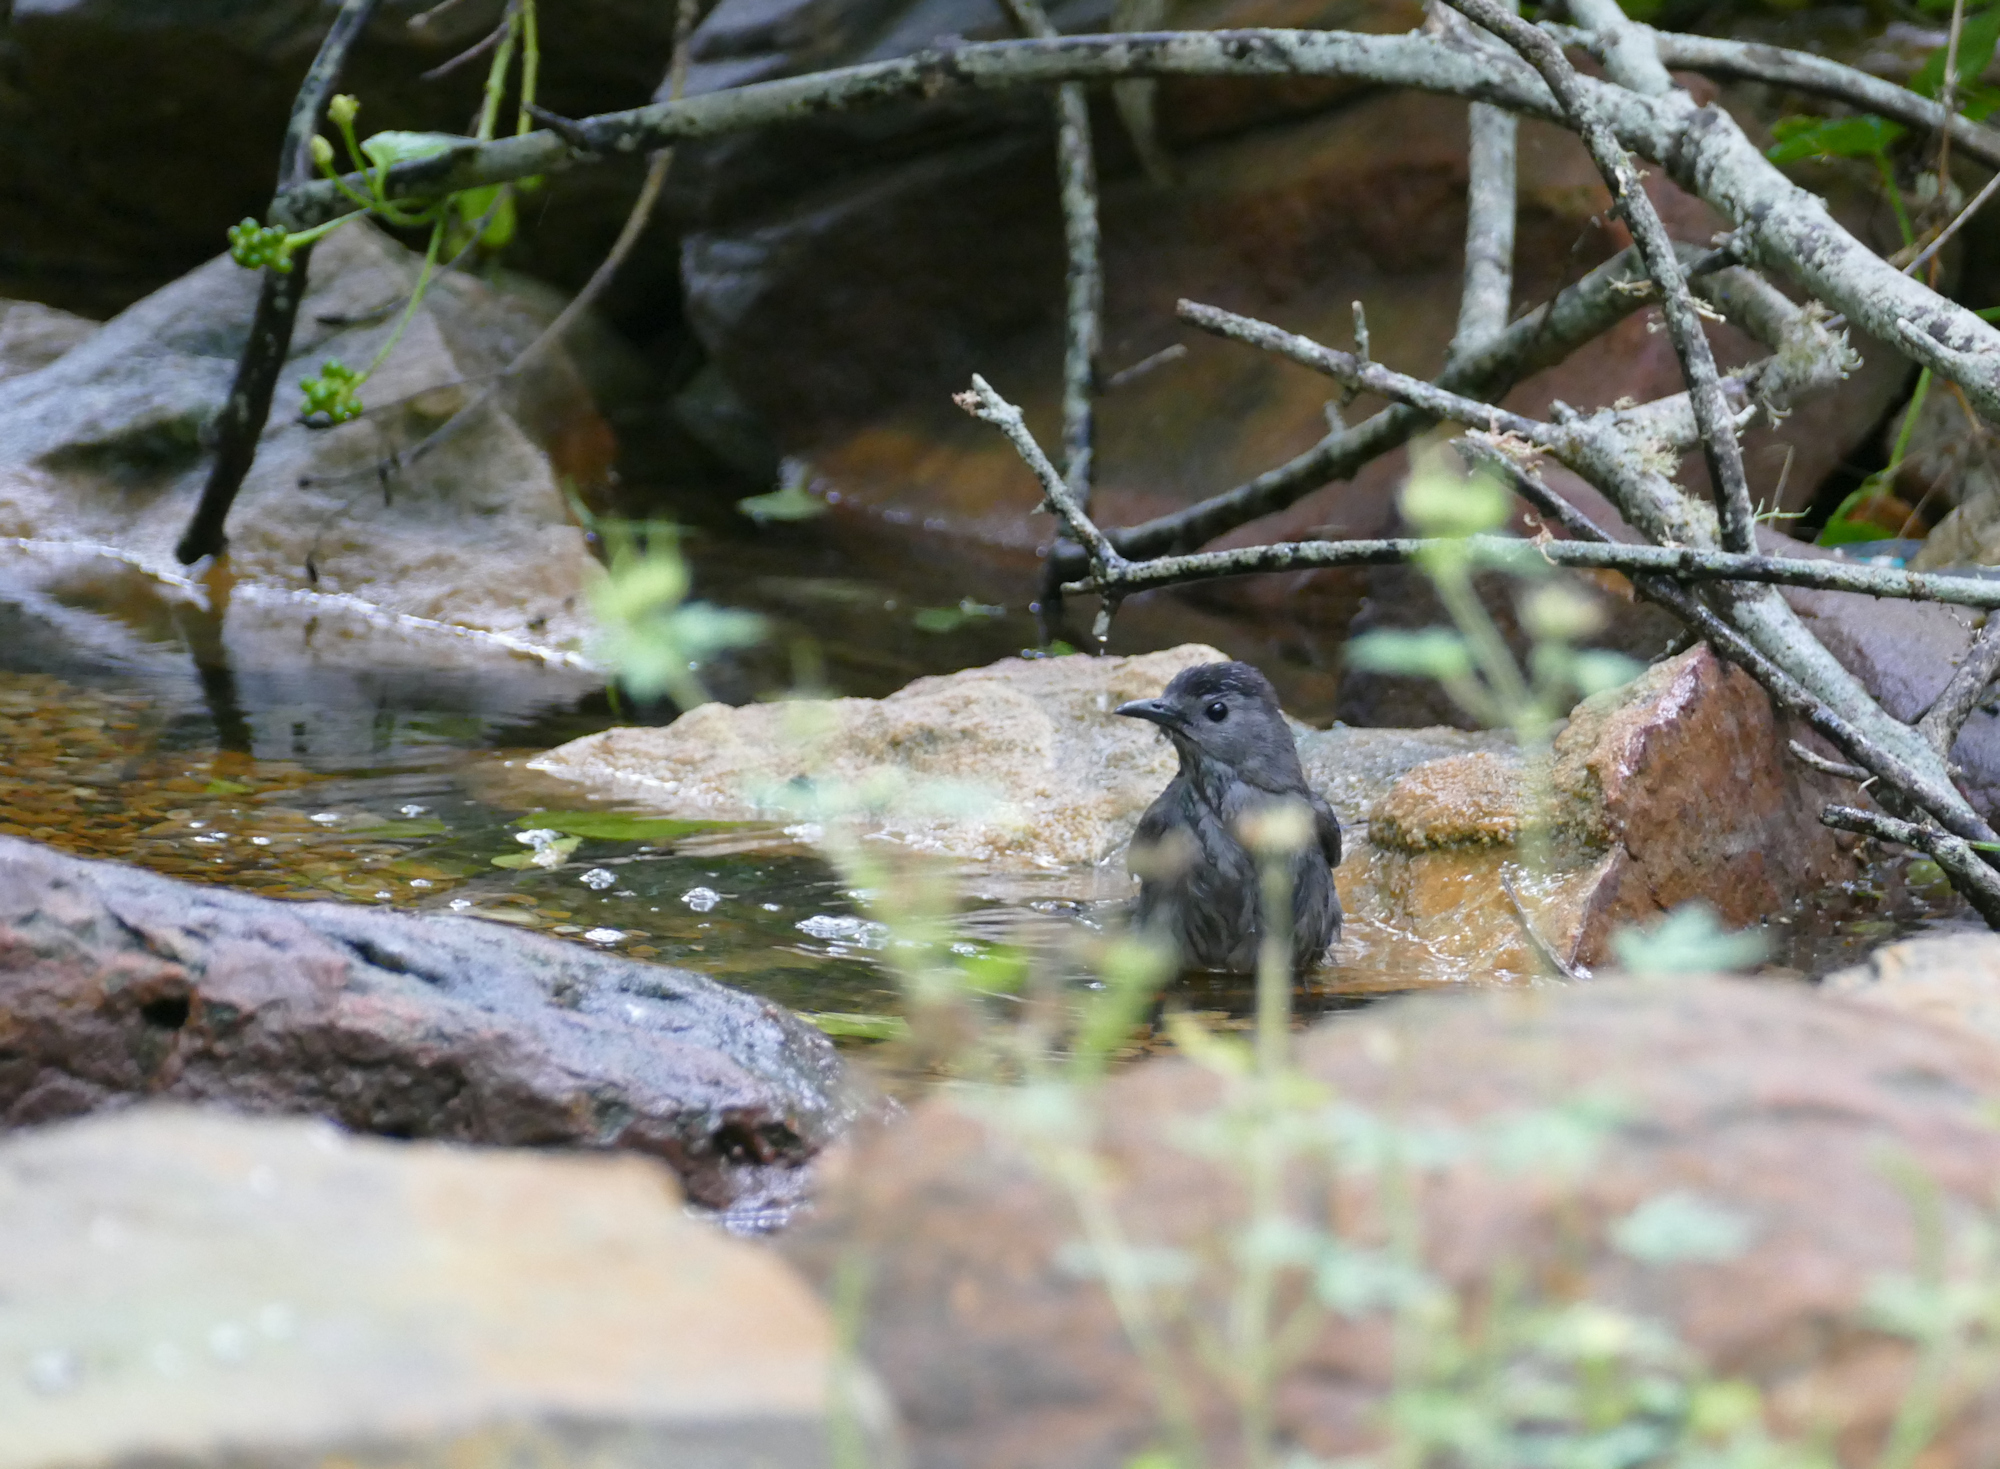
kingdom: Animalia
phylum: Chordata
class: Aves
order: Passeriformes
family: Mimidae
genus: Dumetella
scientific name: Dumetella carolinensis
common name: Gray catbird
